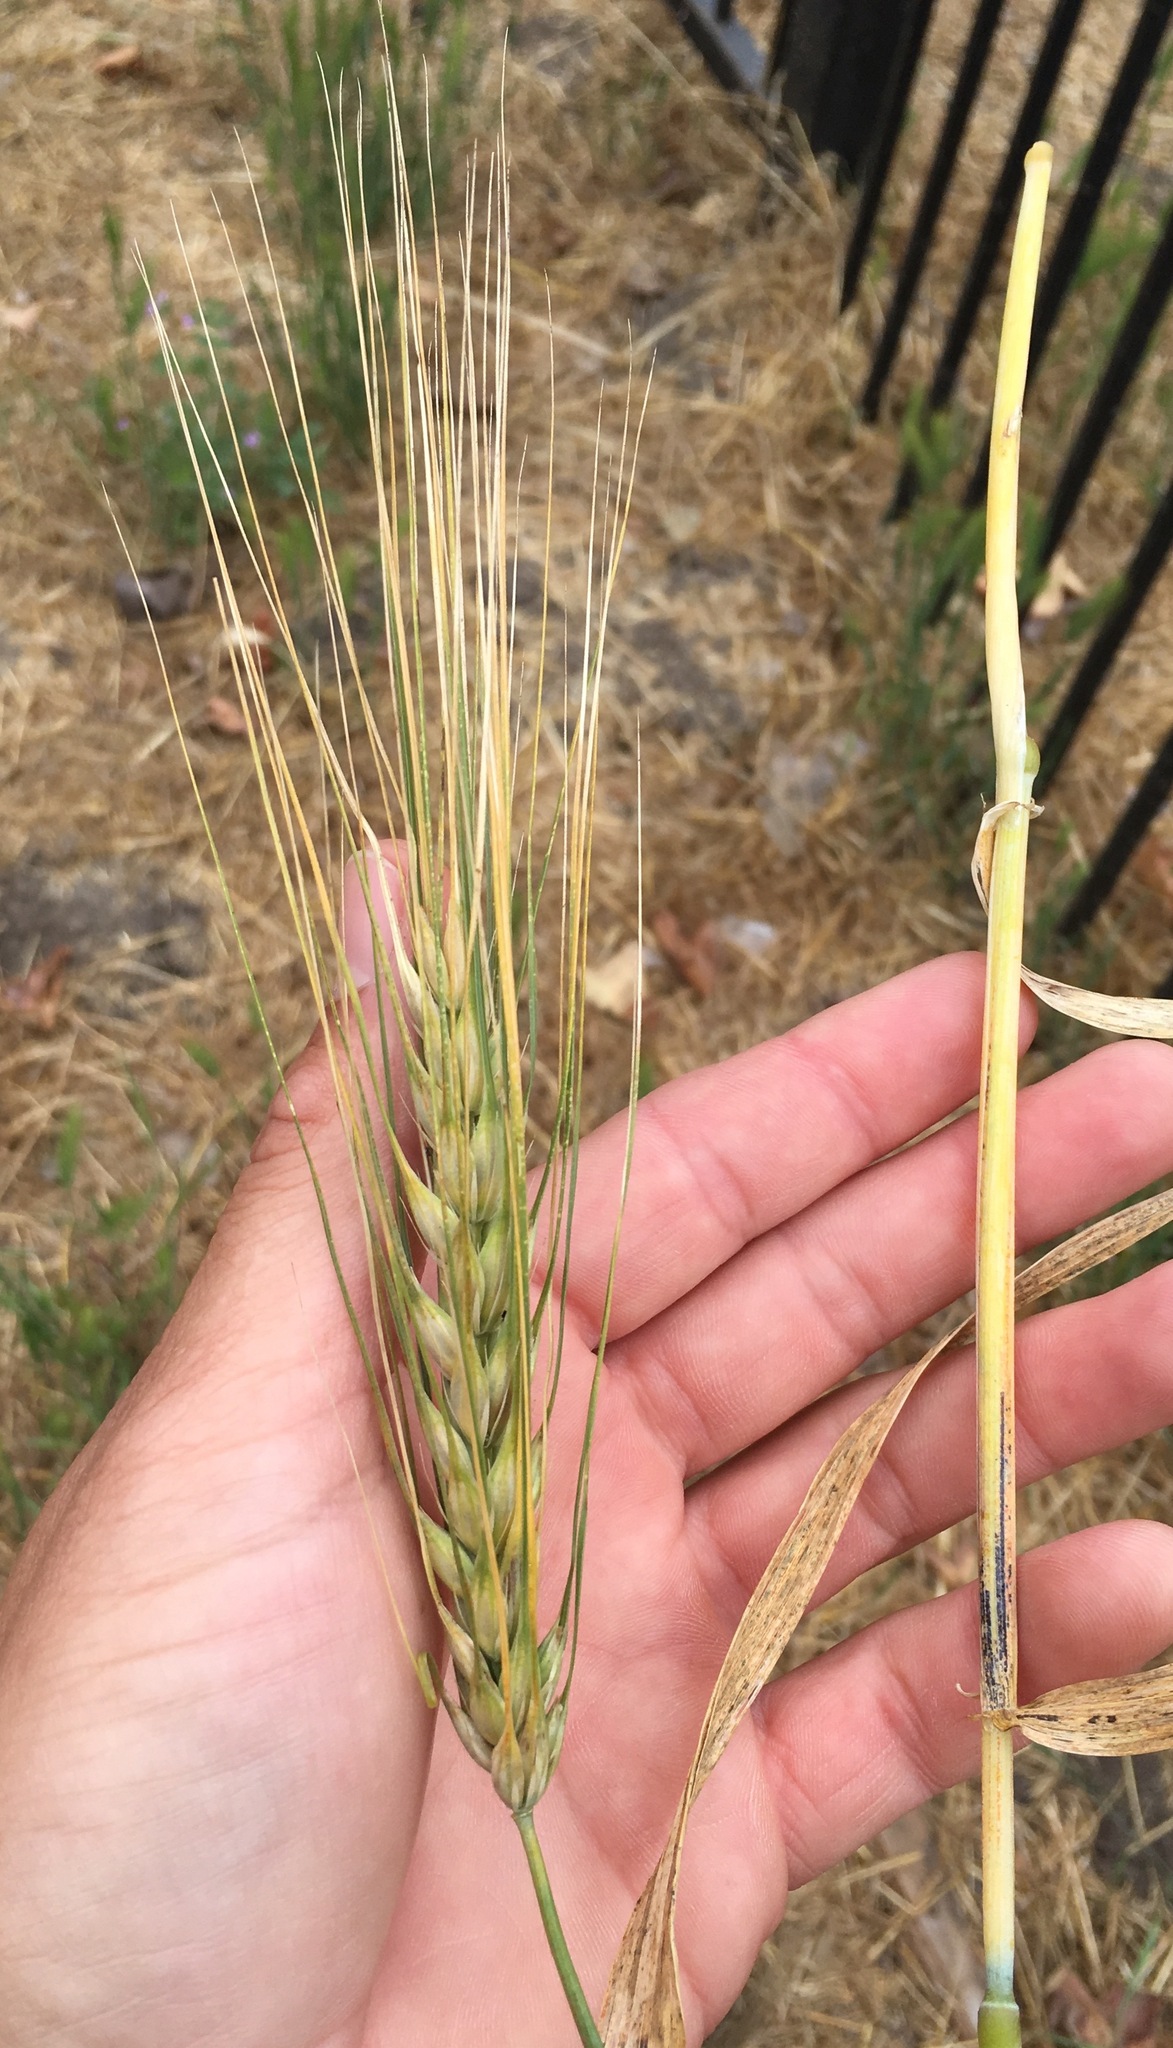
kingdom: Plantae
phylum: Tracheophyta
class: Liliopsida
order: Poales
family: Poaceae
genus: Hordeum
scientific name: Hordeum vulgare
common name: Common barley
